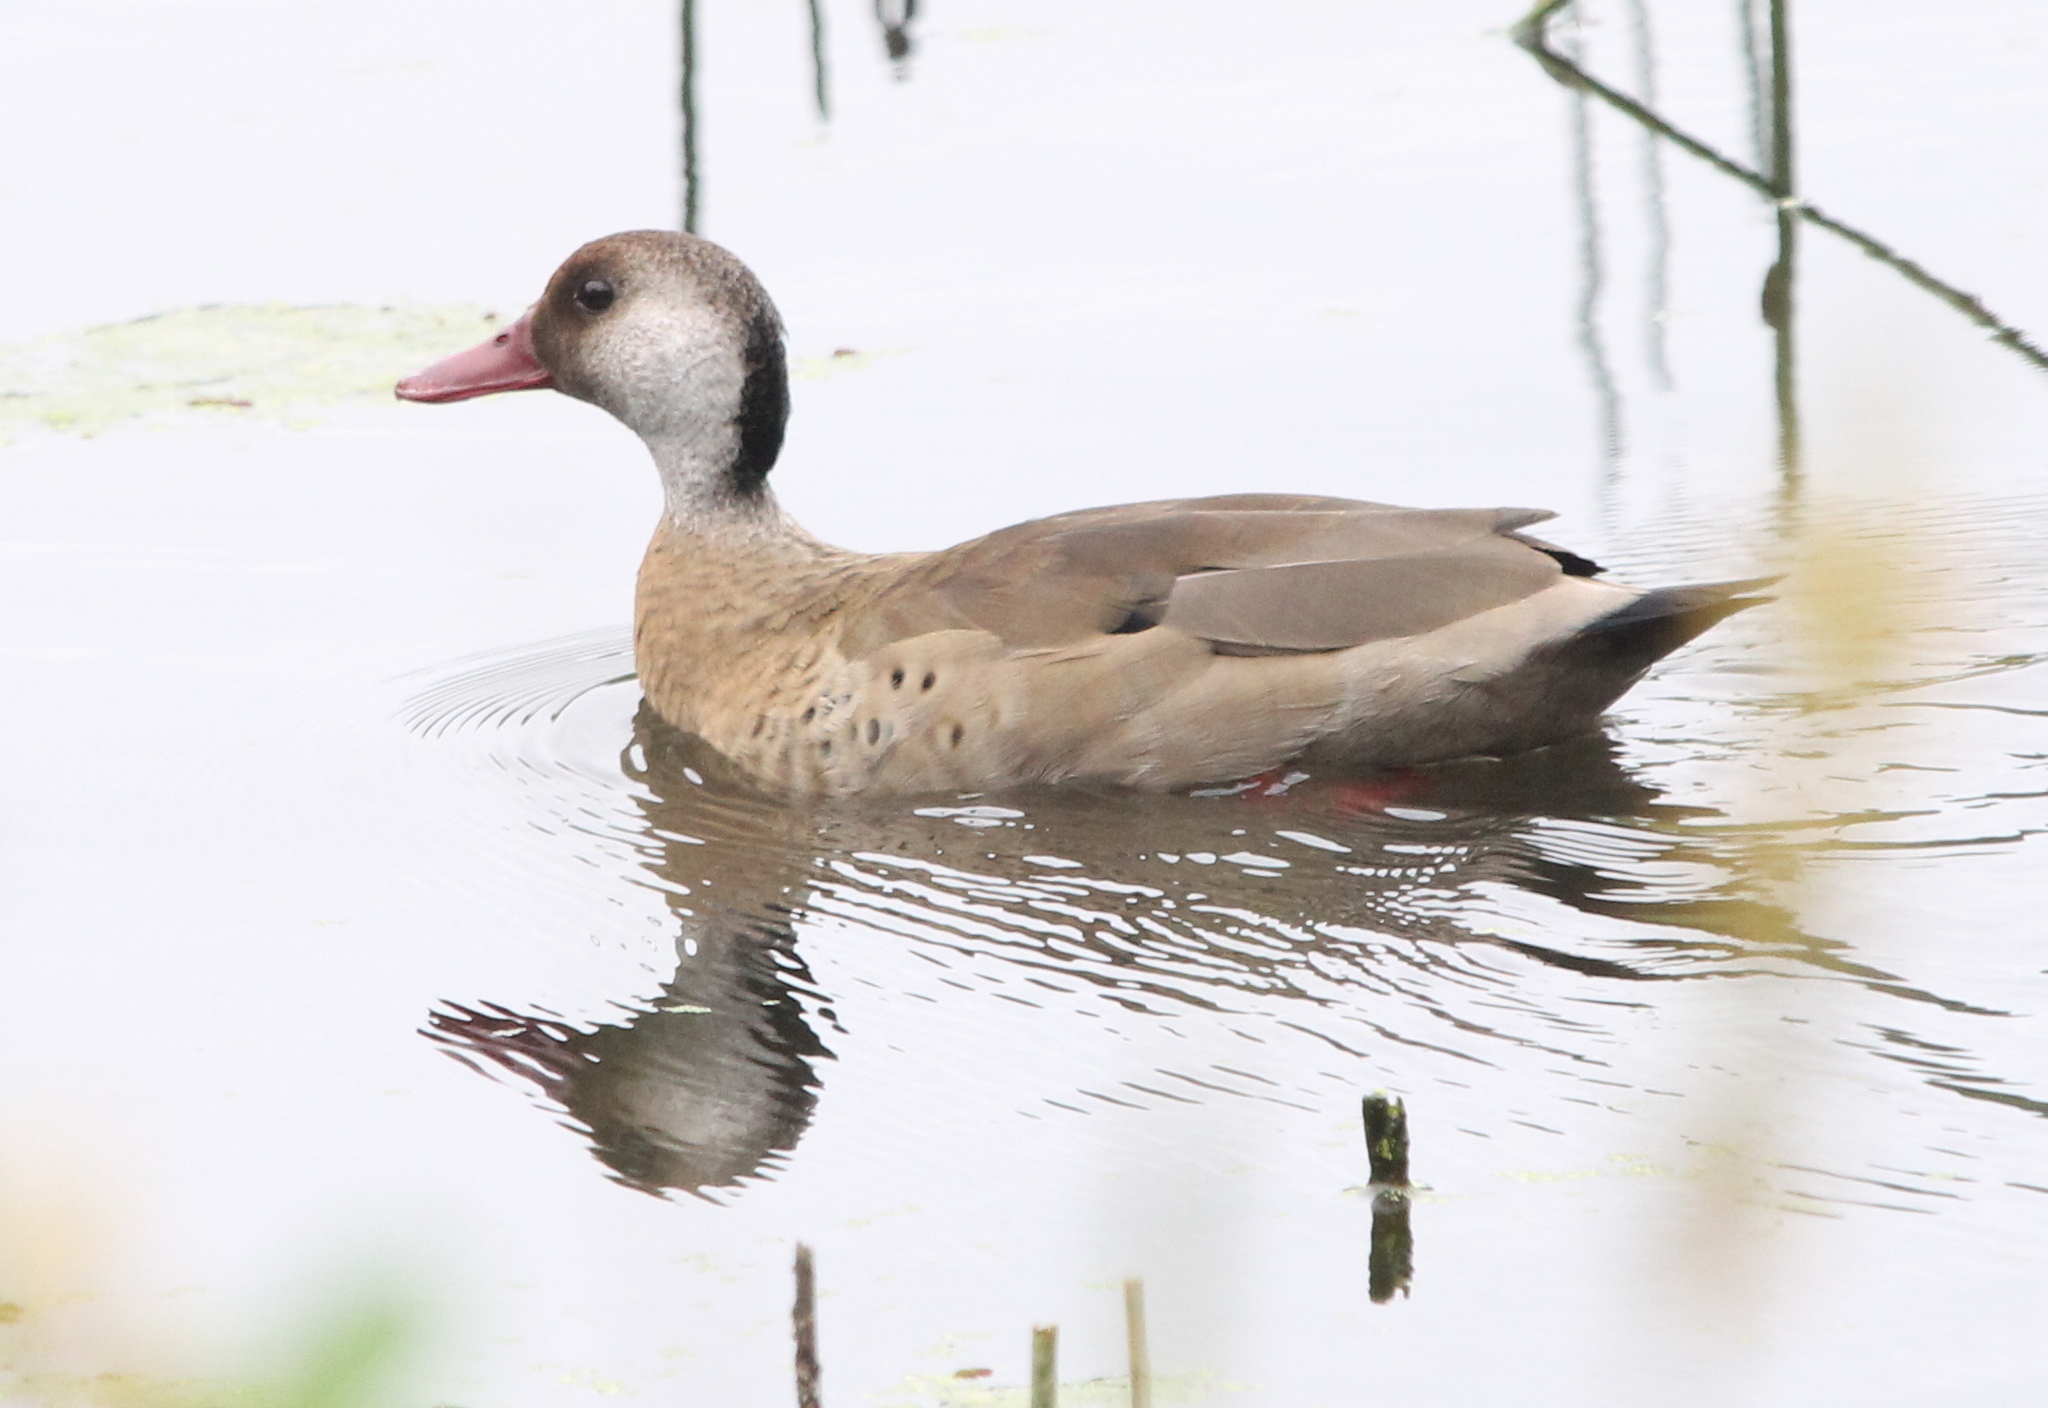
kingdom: Animalia
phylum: Chordata
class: Aves
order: Anseriformes
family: Anatidae
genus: Amazonetta
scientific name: Amazonetta brasiliensis
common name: Brazilian teal
